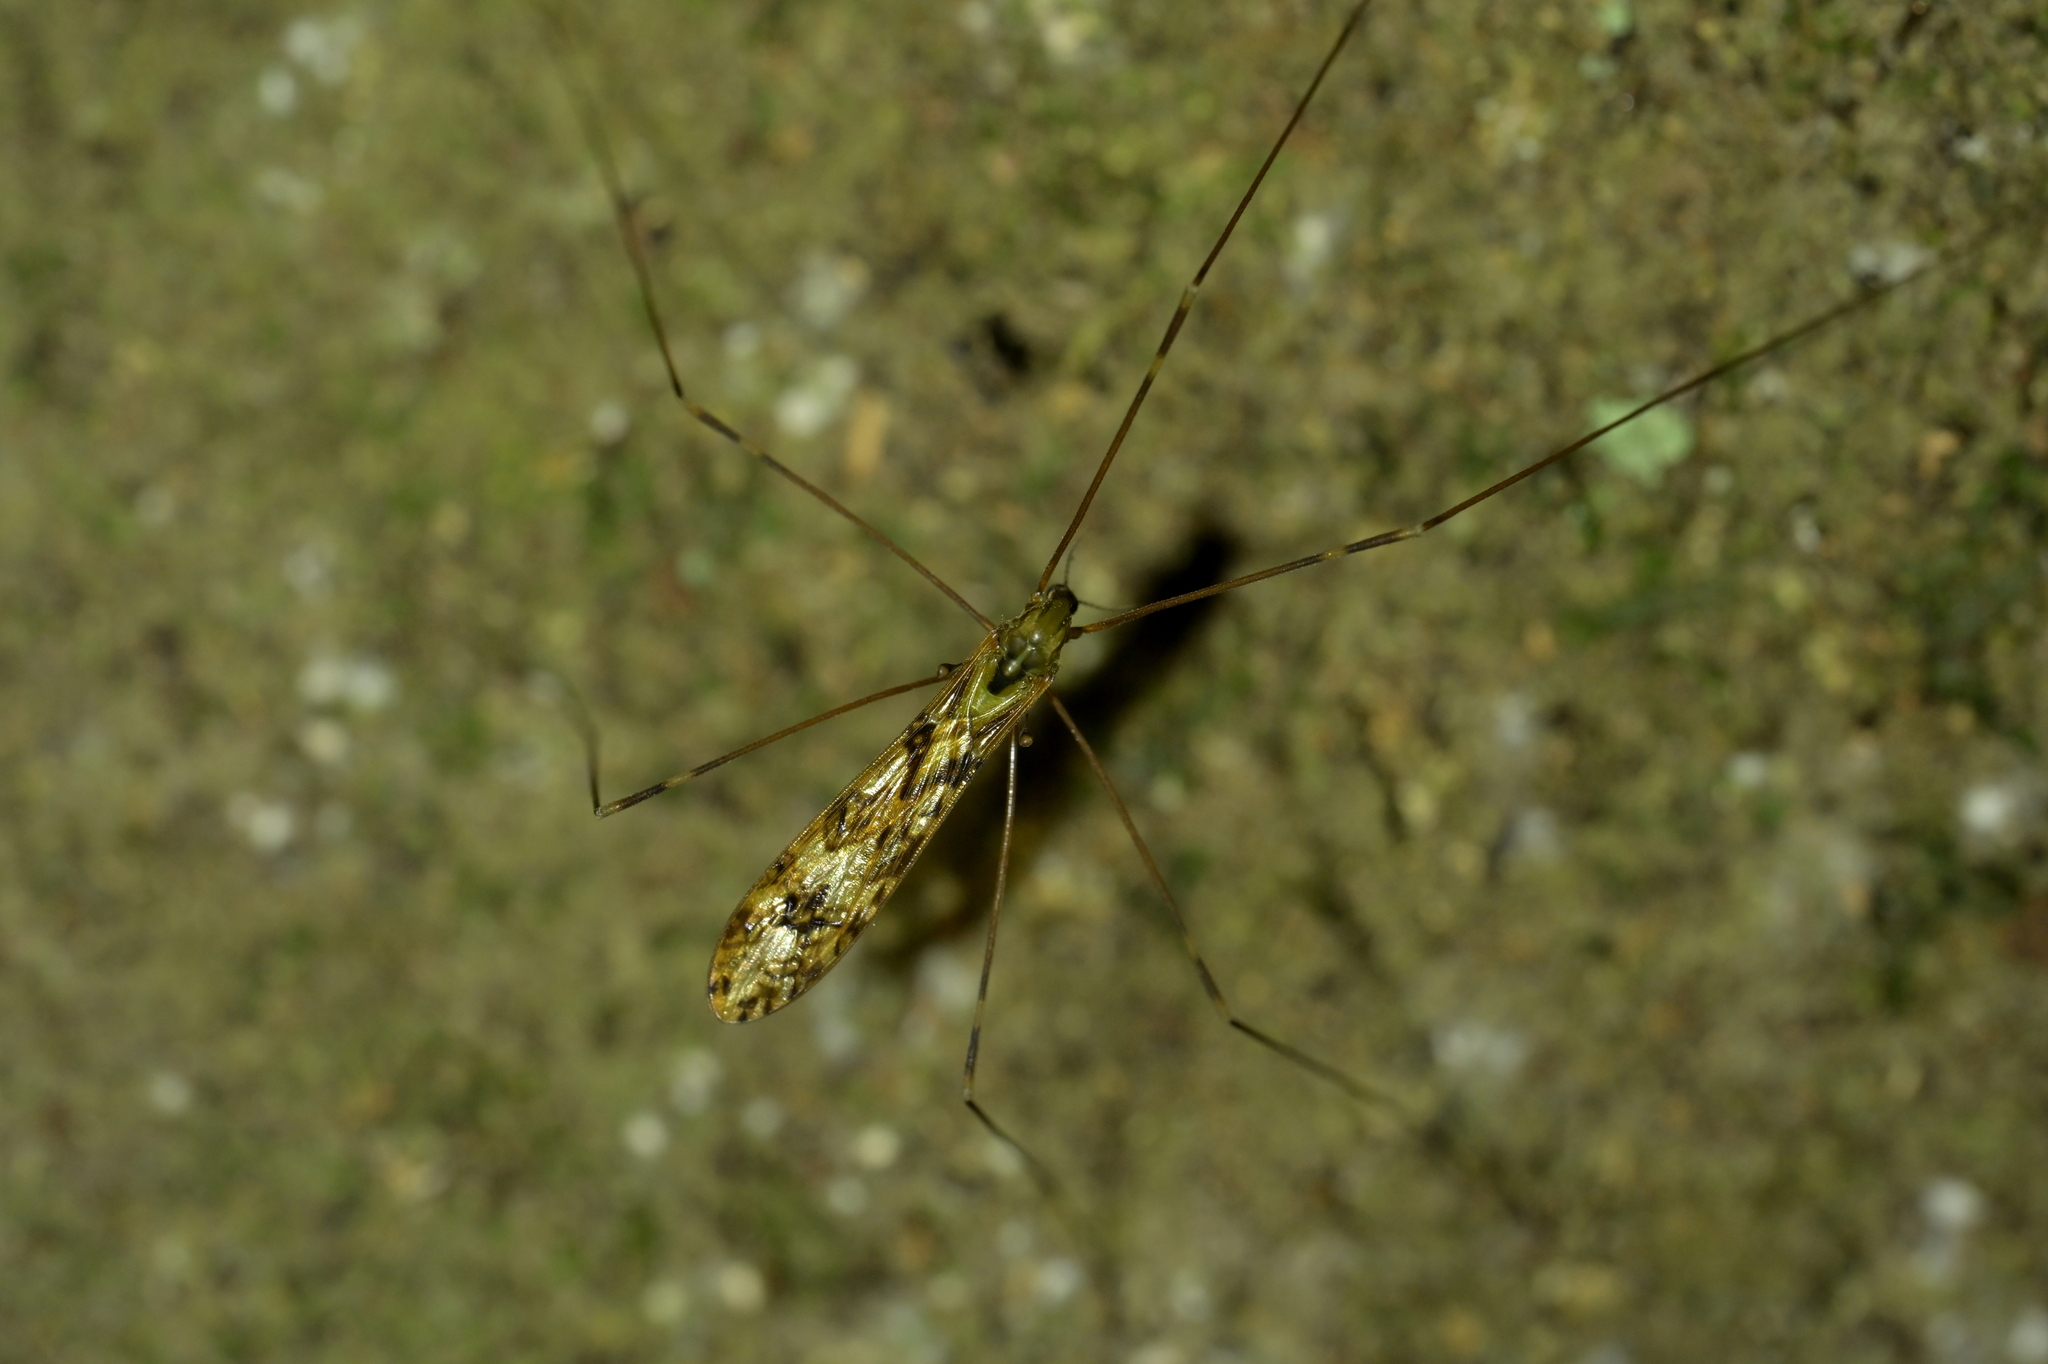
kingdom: Animalia
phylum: Arthropoda
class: Insecta
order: Diptera
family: Limoniidae
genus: Discobola
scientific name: Discobola dohrni
